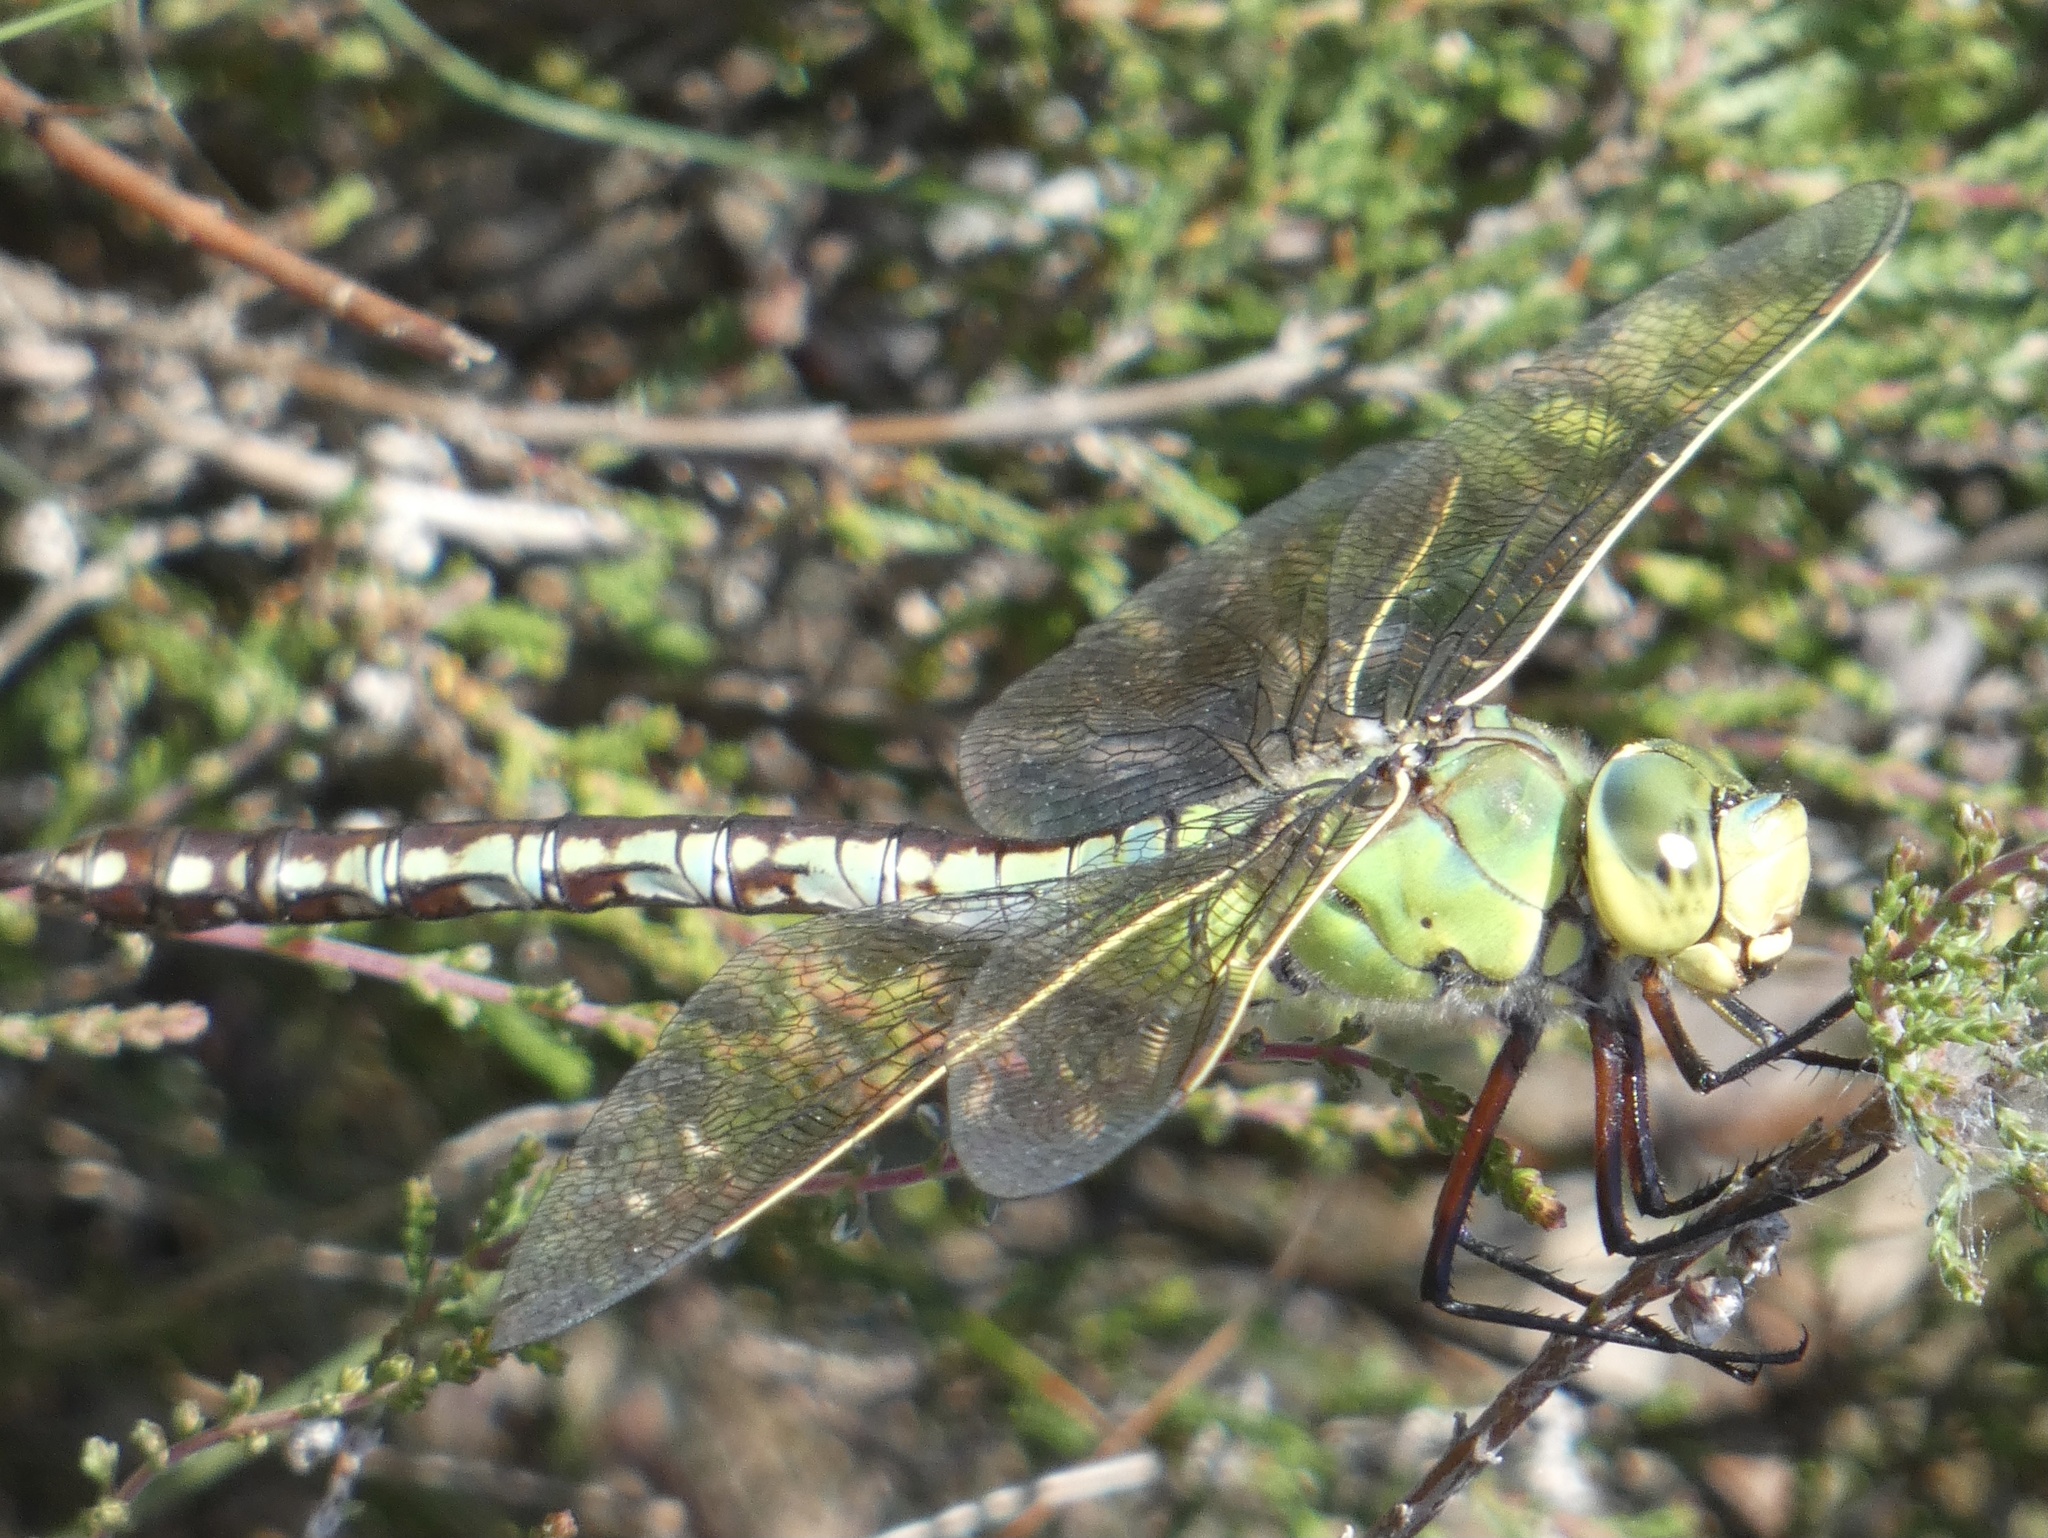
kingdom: Animalia
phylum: Arthropoda
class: Insecta
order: Odonata
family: Aeshnidae
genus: Anax
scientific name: Anax imperator
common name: Emperor dragonfly
